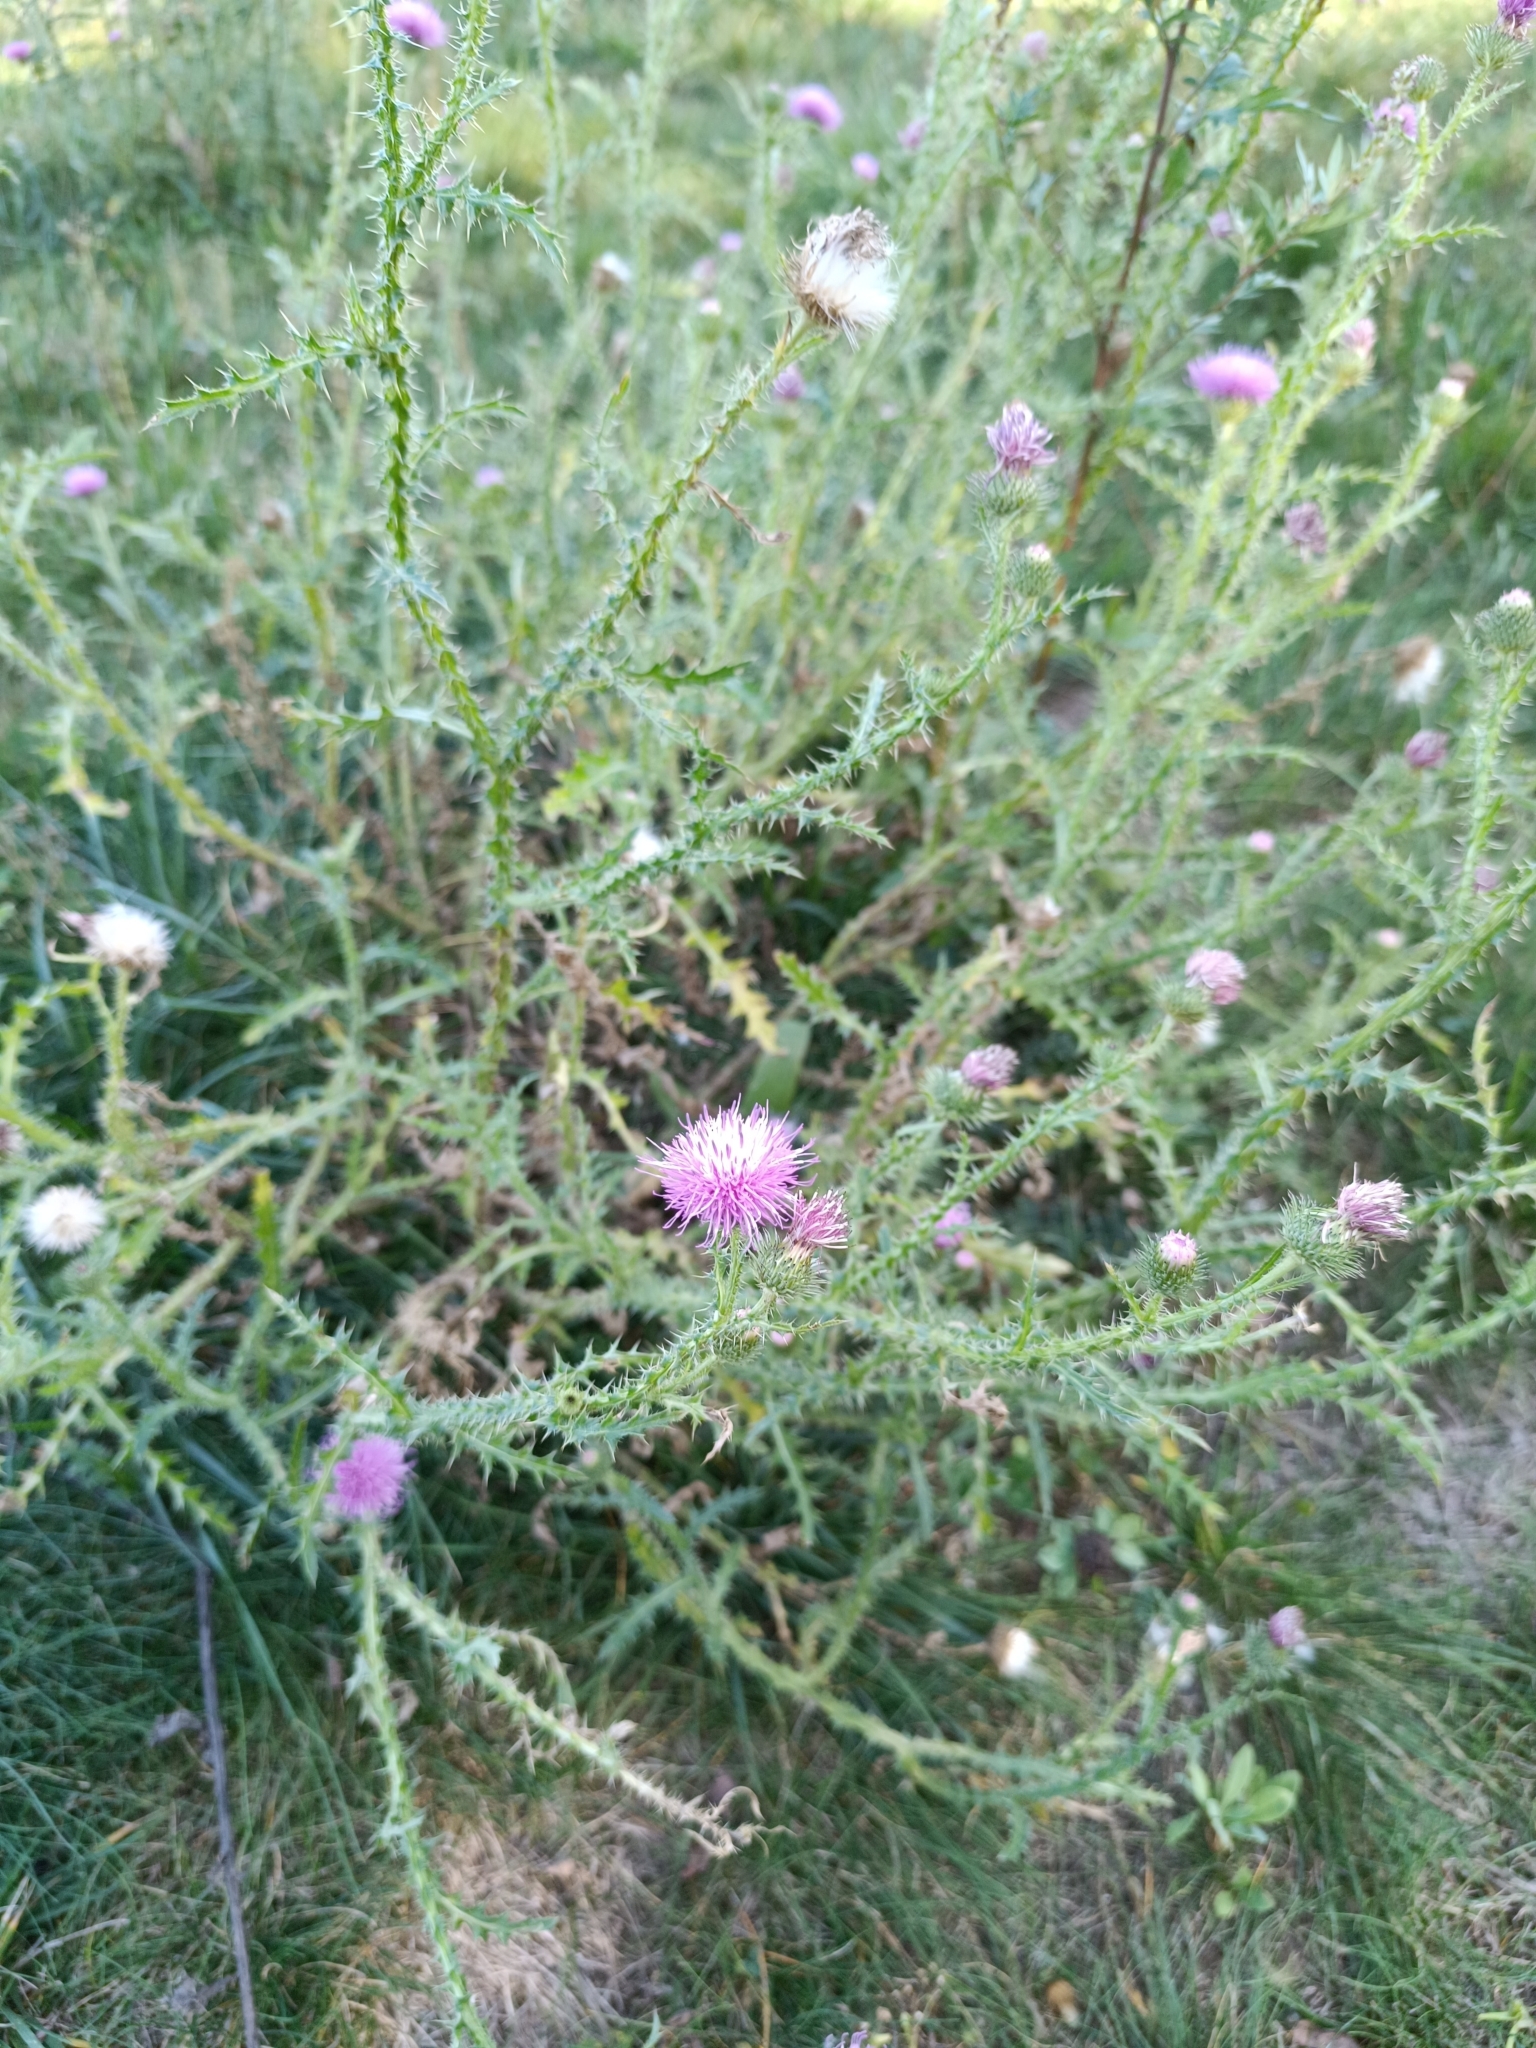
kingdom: Plantae
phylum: Tracheophyta
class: Magnoliopsida
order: Asterales
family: Asteraceae
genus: Carduus
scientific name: Carduus acanthoides
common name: Plumeless thistle
